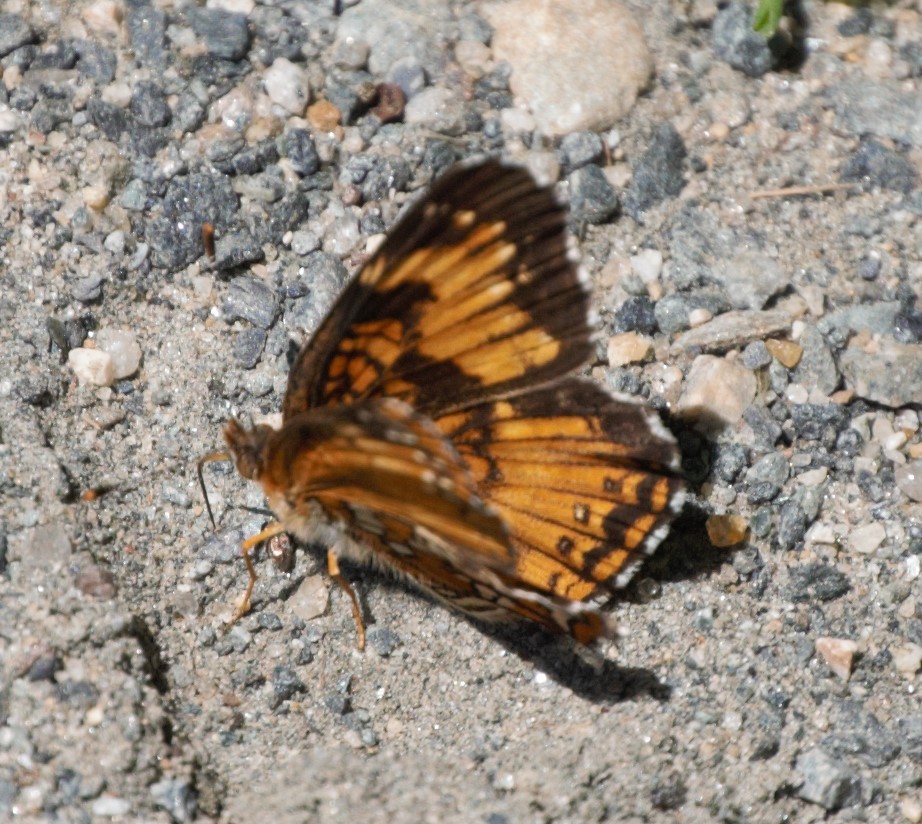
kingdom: Animalia
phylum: Arthropoda
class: Insecta
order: Lepidoptera
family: Nymphalidae
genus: Chlosyne
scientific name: Chlosyne harrisii
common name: Harris's checkerspot
